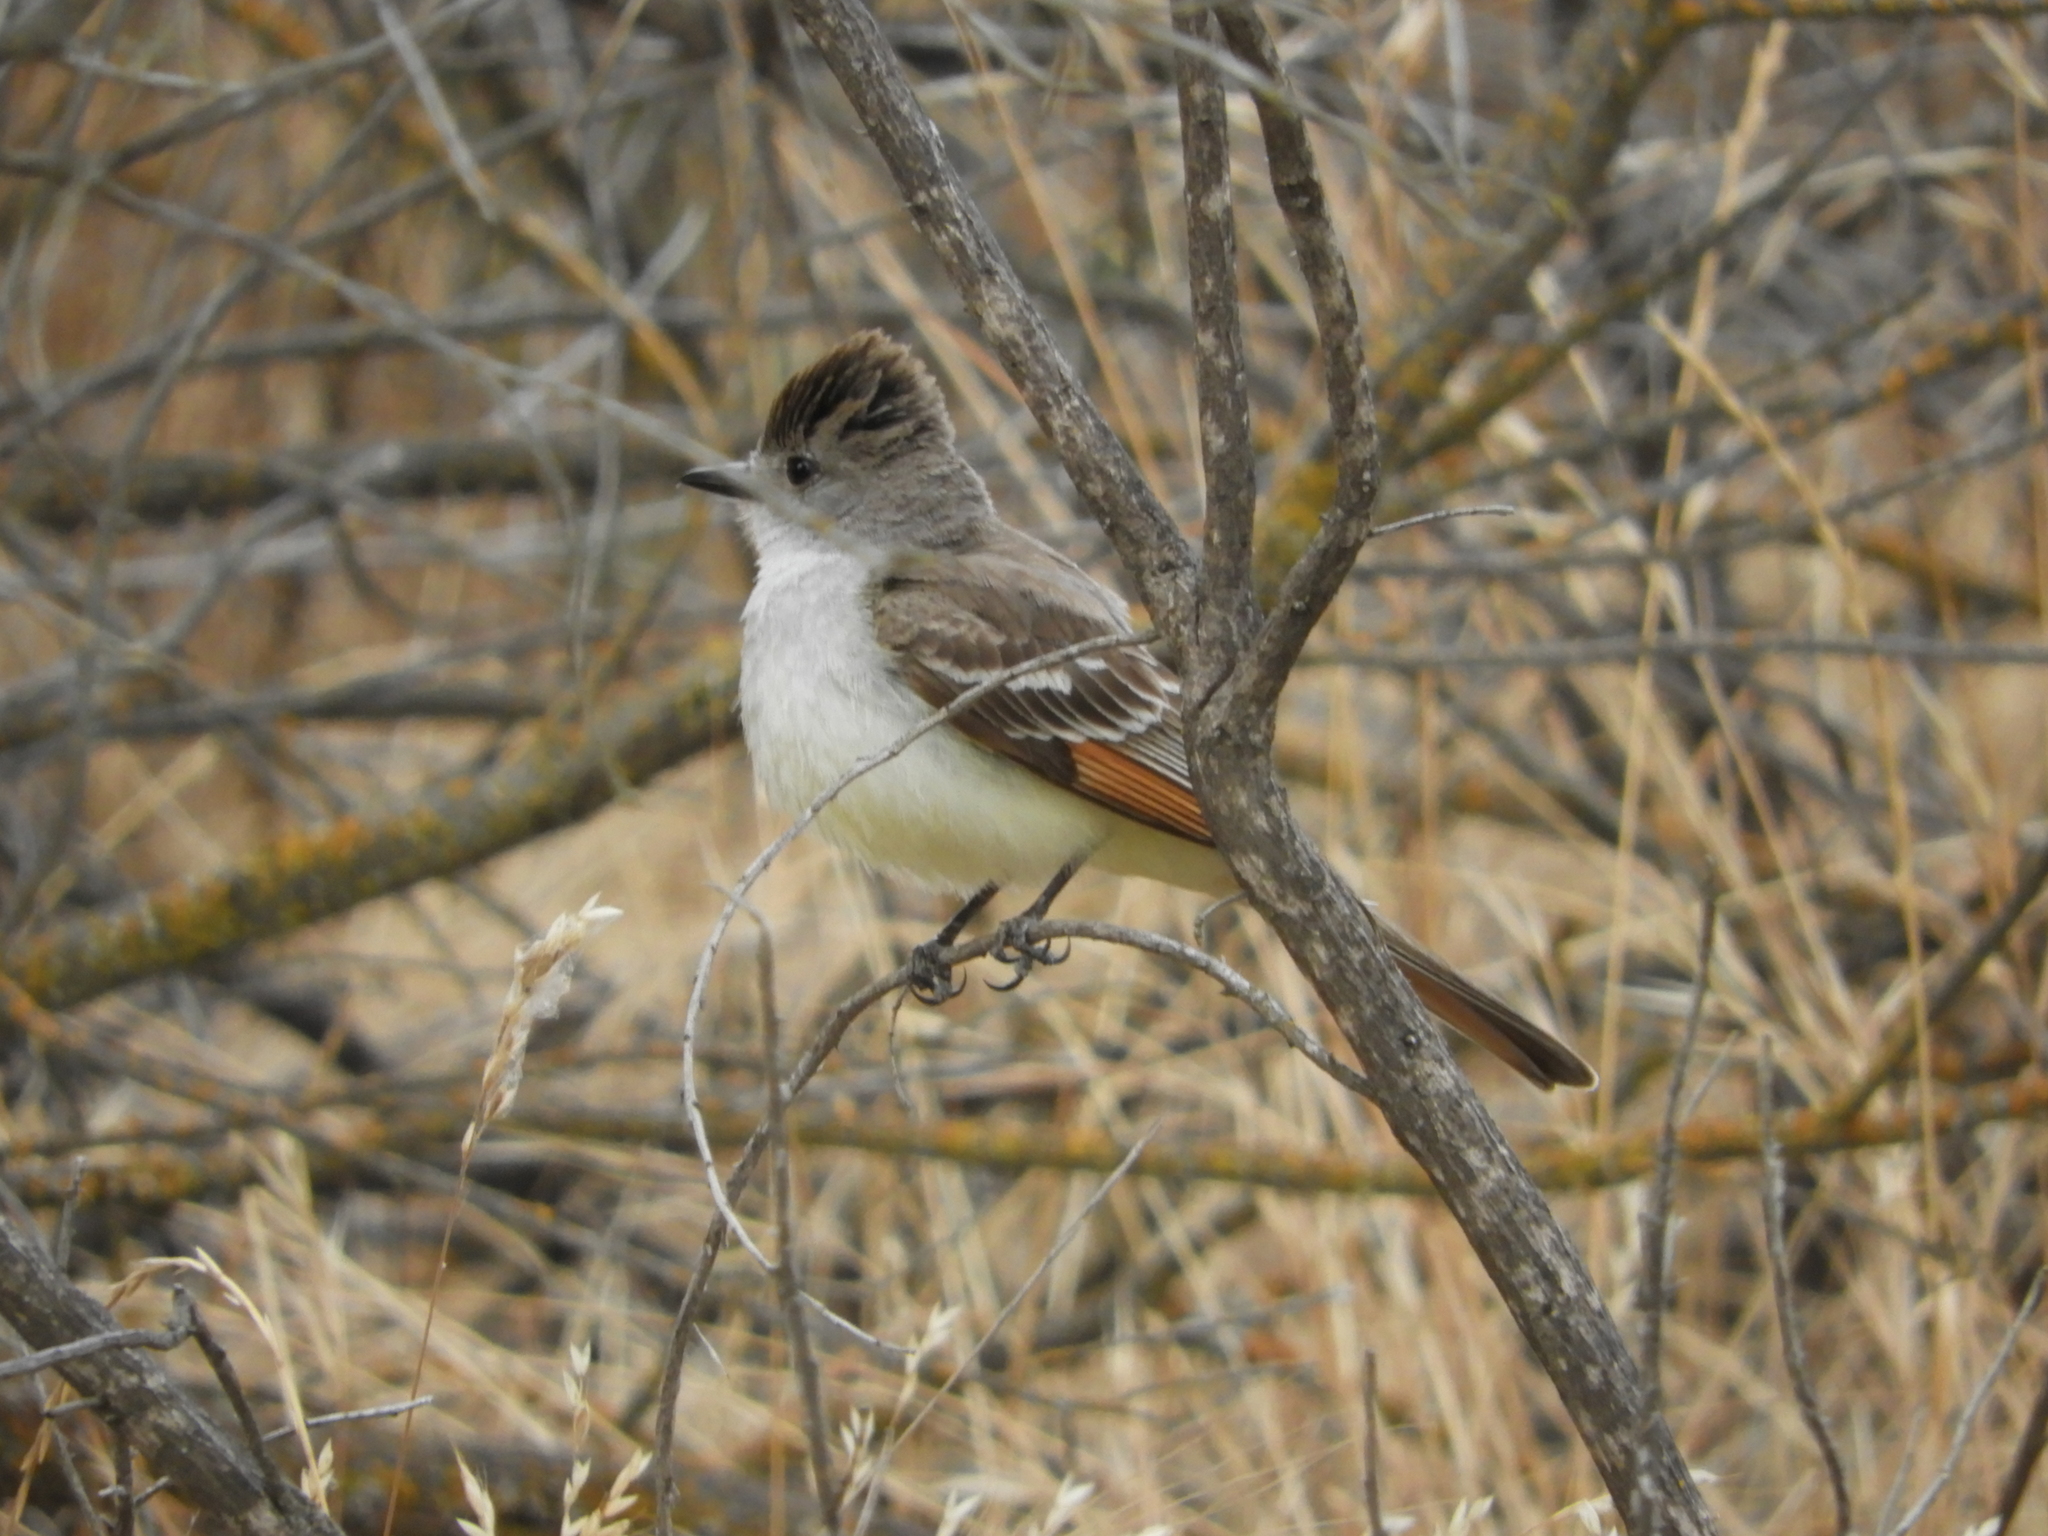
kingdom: Animalia
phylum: Chordata
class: Aves
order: Passeriformes
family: Tyrannidae
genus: Myiarchus
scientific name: Myiarchus cinerascens
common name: Ash-throated flycatcher
